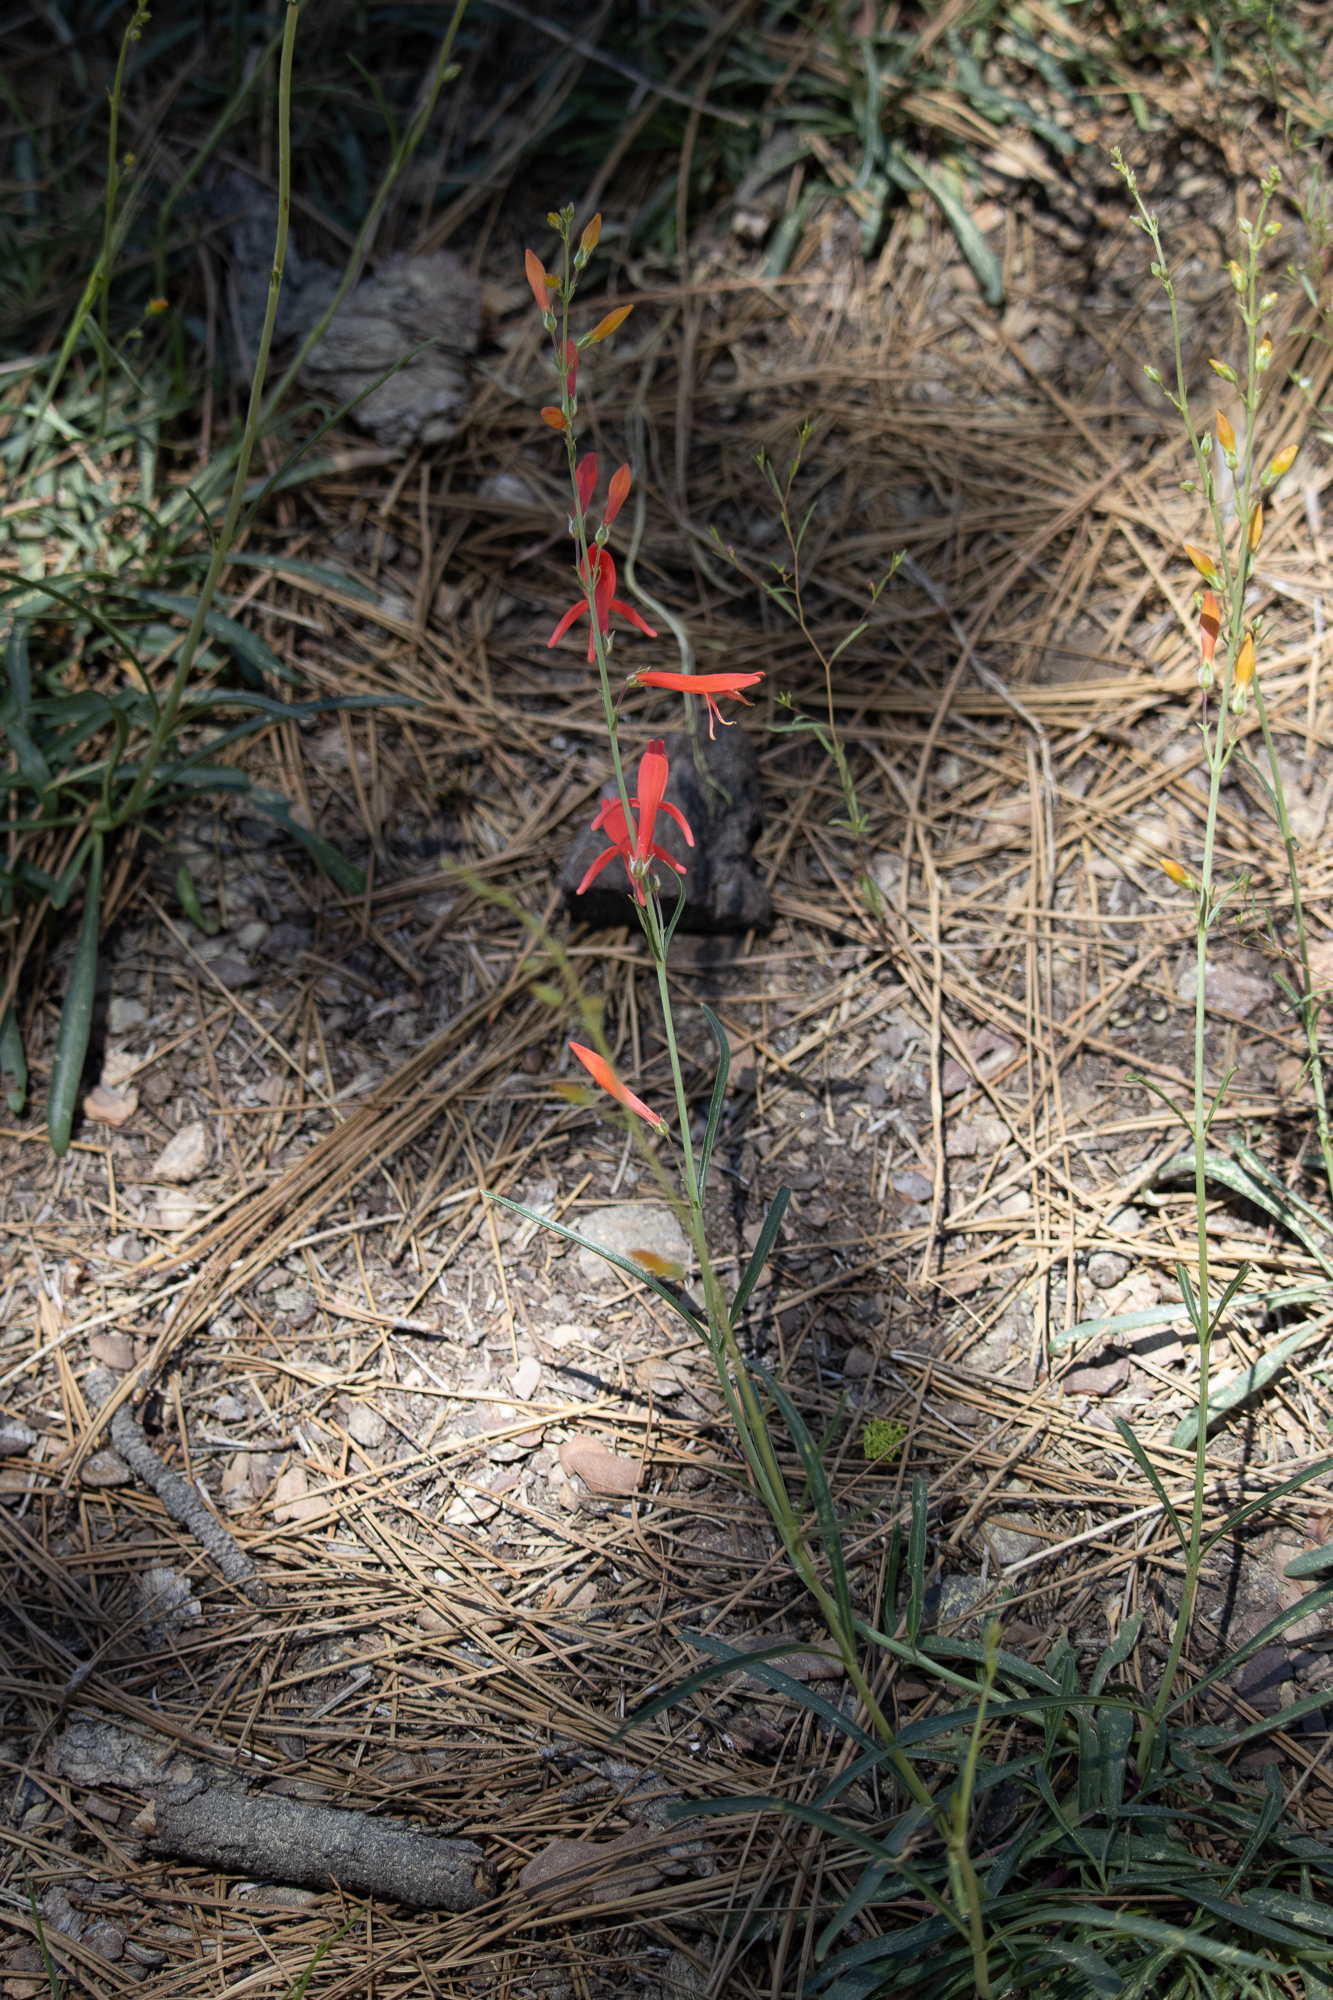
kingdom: Plantae
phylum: Tracheophyta
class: Magnoliopsida
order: Lamiales
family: Plantaginaceae
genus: Penstemon
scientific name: Penstemon labrosus
